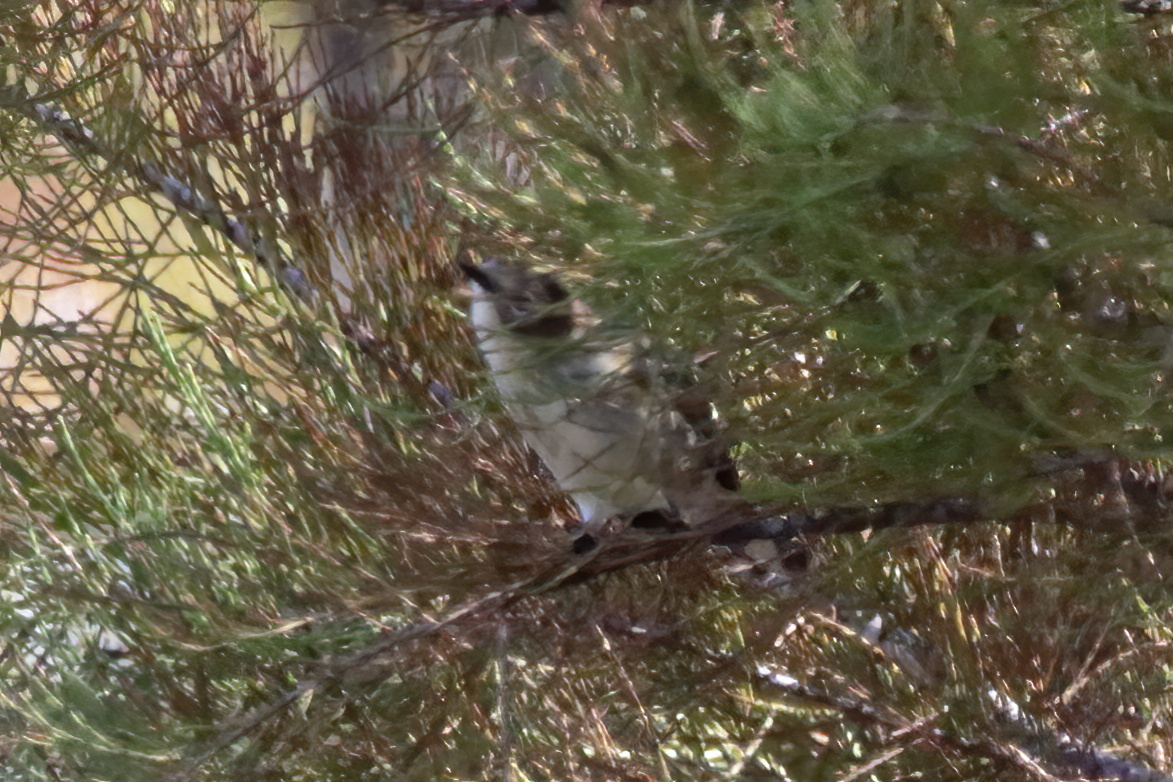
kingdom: Animalia
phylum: Chordata
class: Aves
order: Passeriformes
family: Parulidae
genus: Setophaga
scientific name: Setophaga coronata
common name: Myrtle warbler
